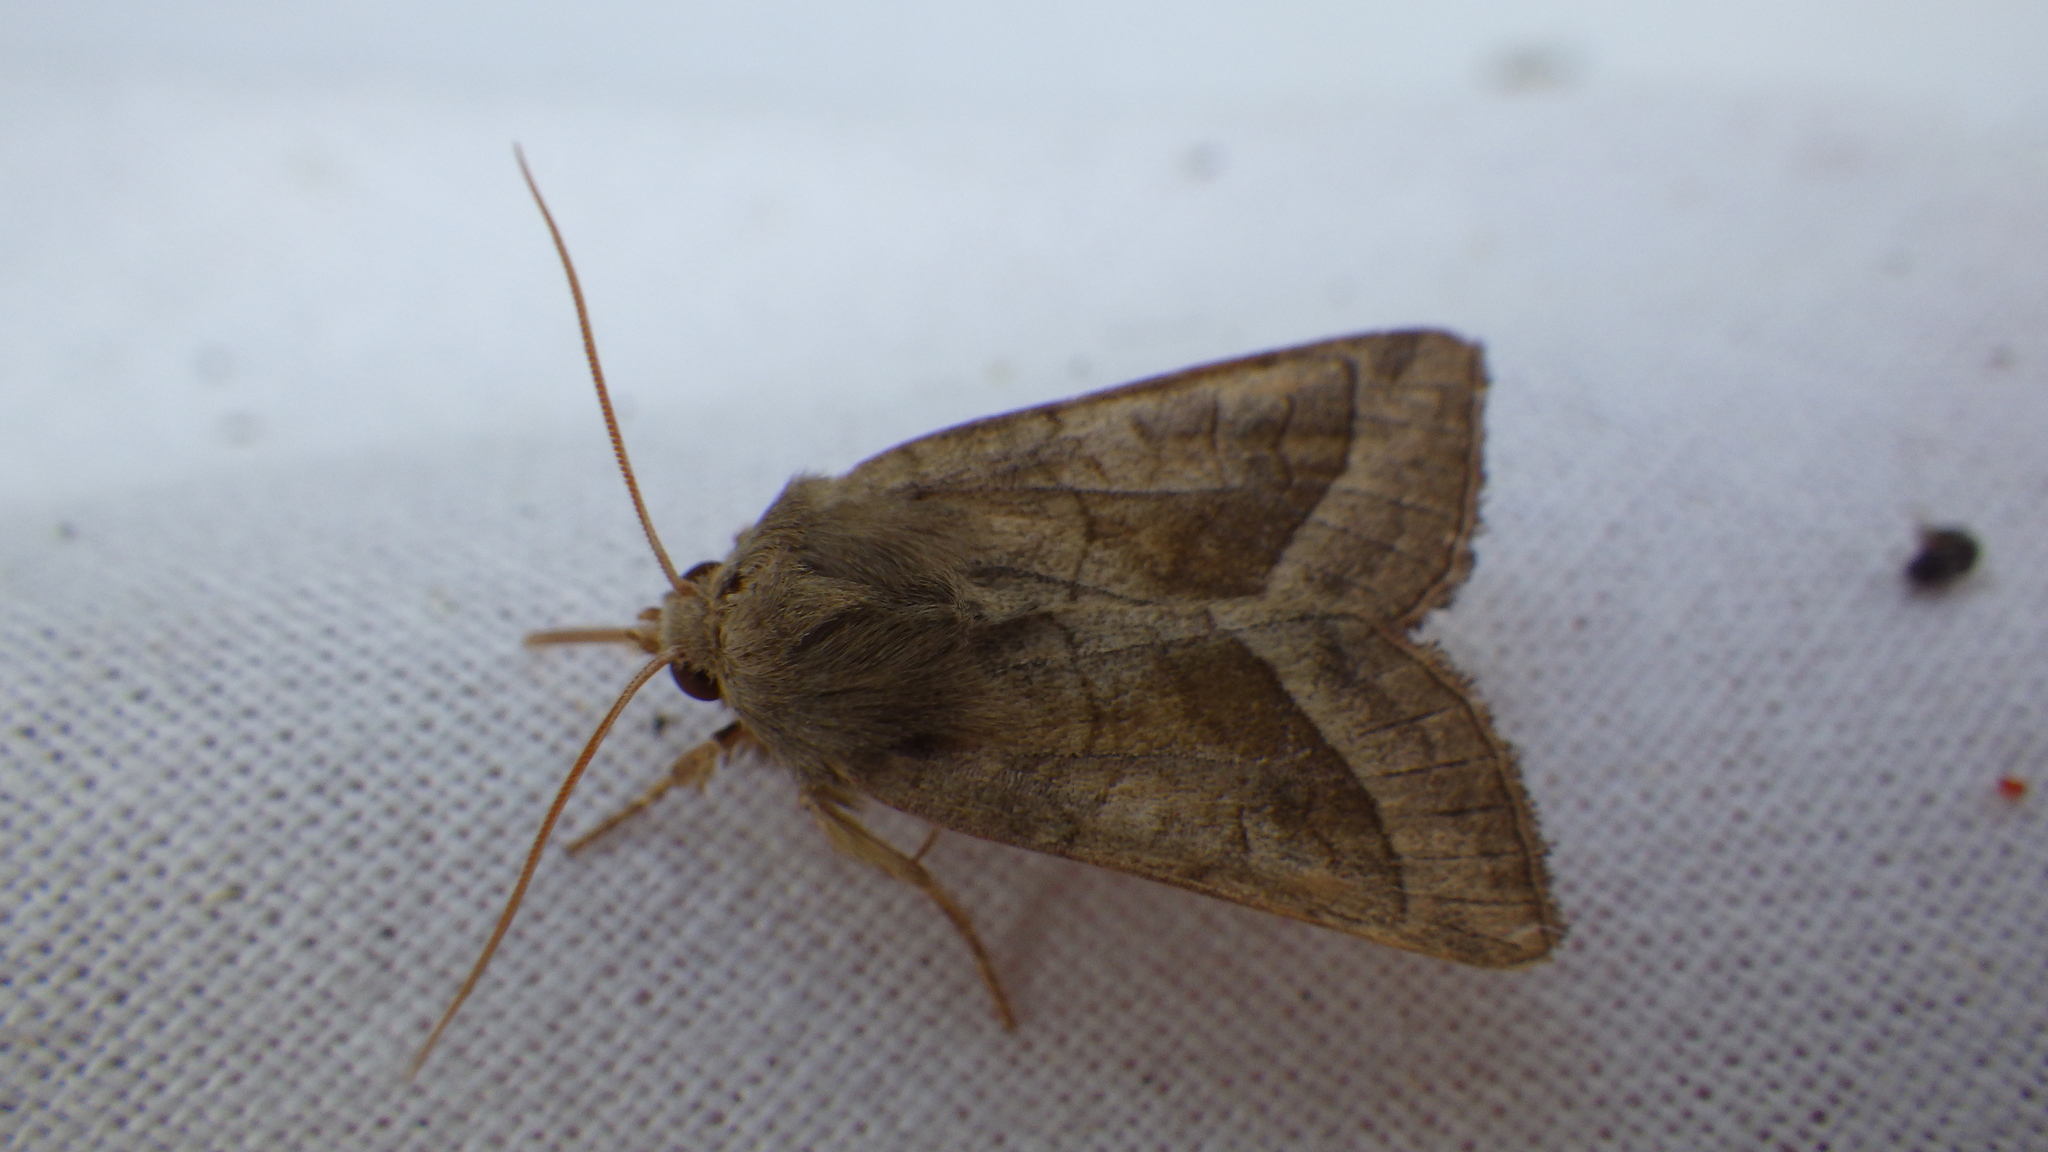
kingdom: Animalia
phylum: Arthropoda
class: Insecta
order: Lepidoptera
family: Noctuidae
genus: Hydraecia
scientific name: Hydraecia micacea
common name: Rosy rustic
